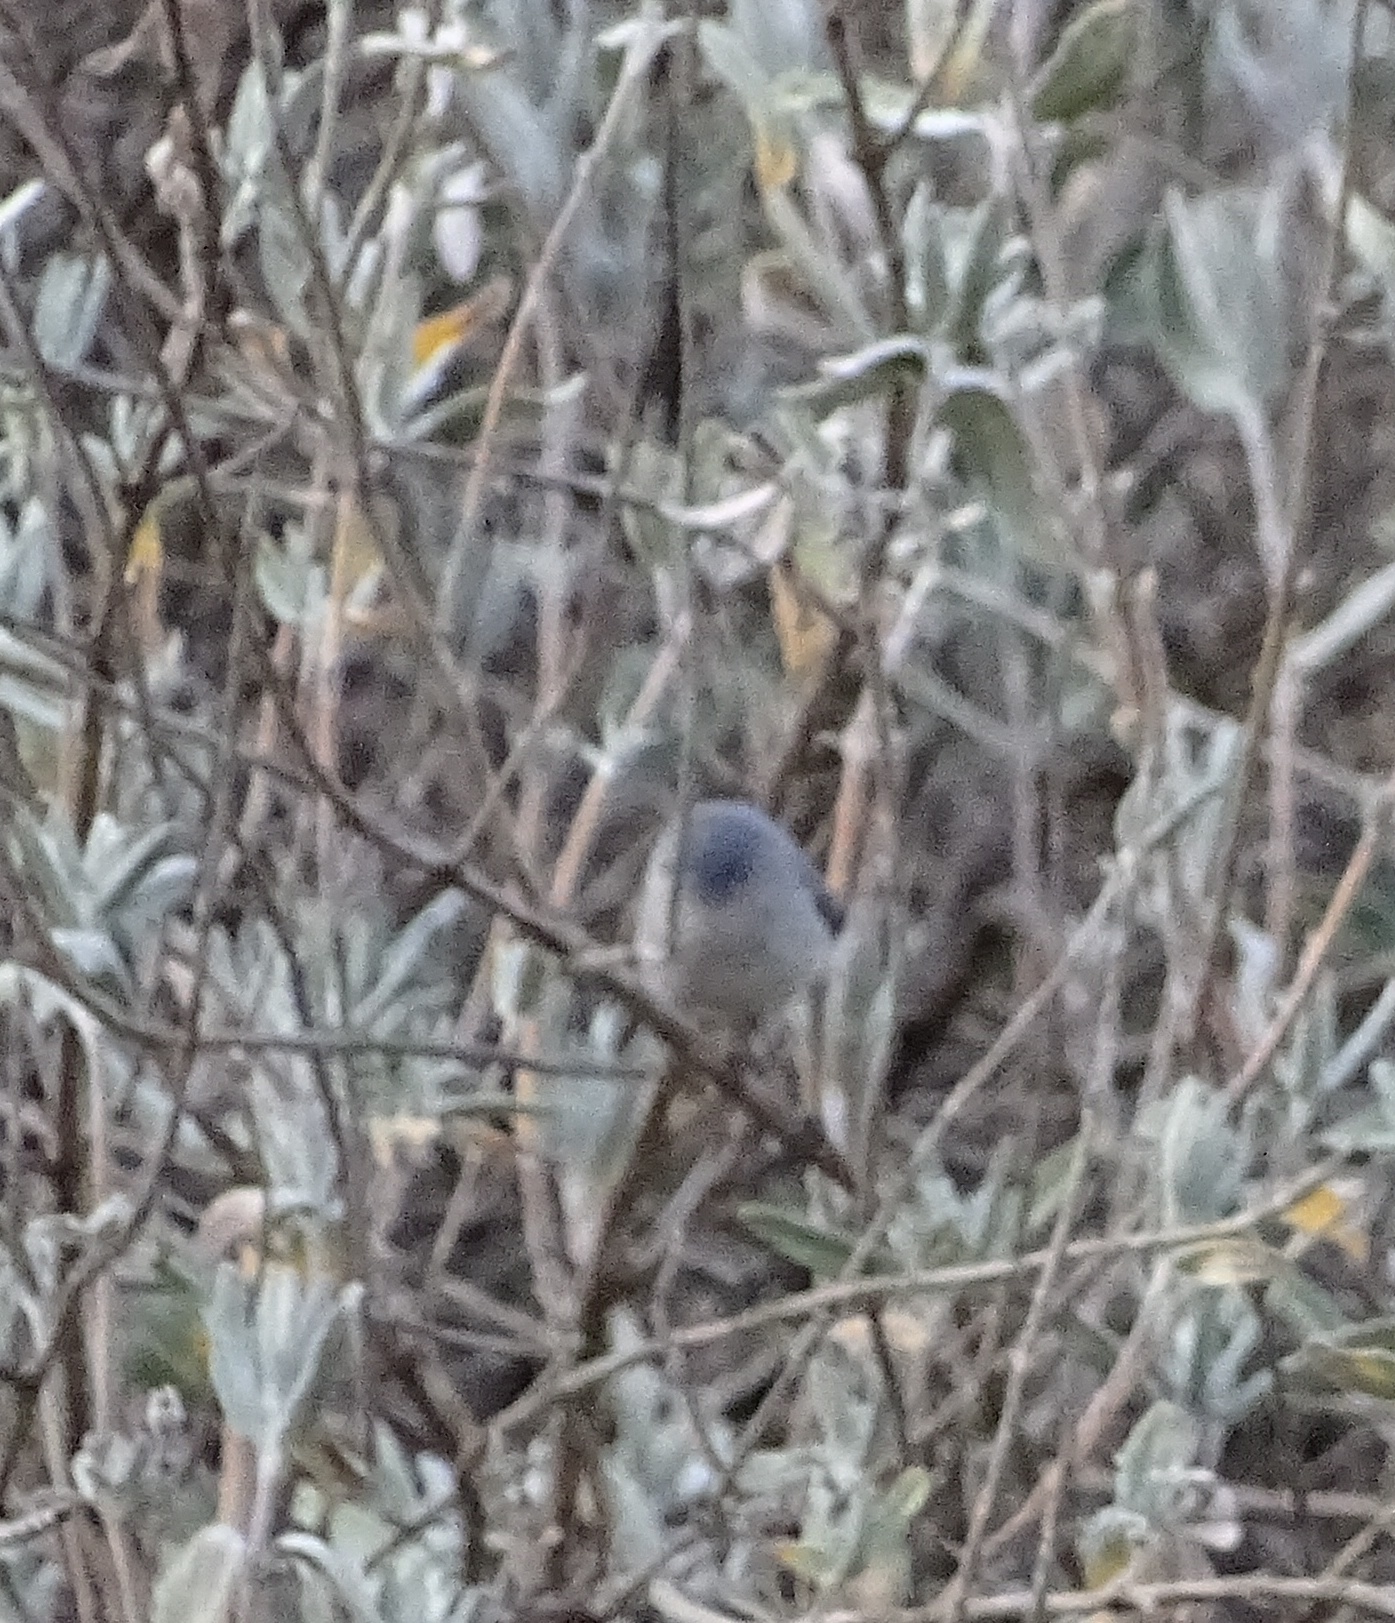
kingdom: Animalia
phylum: Chordata
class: Aves
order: Passeriformes
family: Aegithalidae
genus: Psaltriparus
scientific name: Psaltriparus minimus
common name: American bushtit
